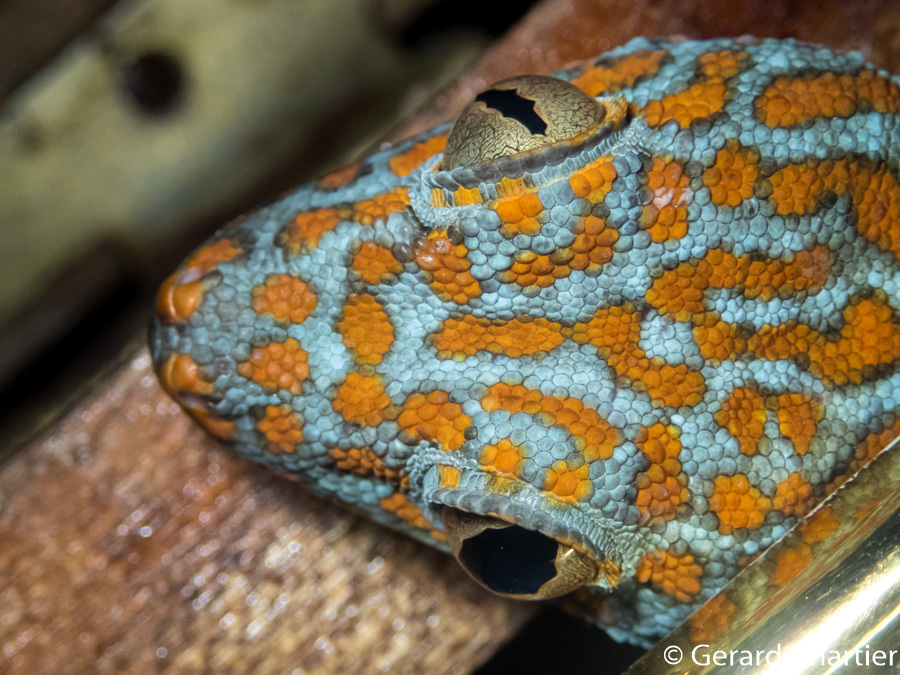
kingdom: Animalia
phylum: Chordata
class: Squamata
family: Gekkonidae
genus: Gekko
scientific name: Gekko gecko
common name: Tokay gecko
